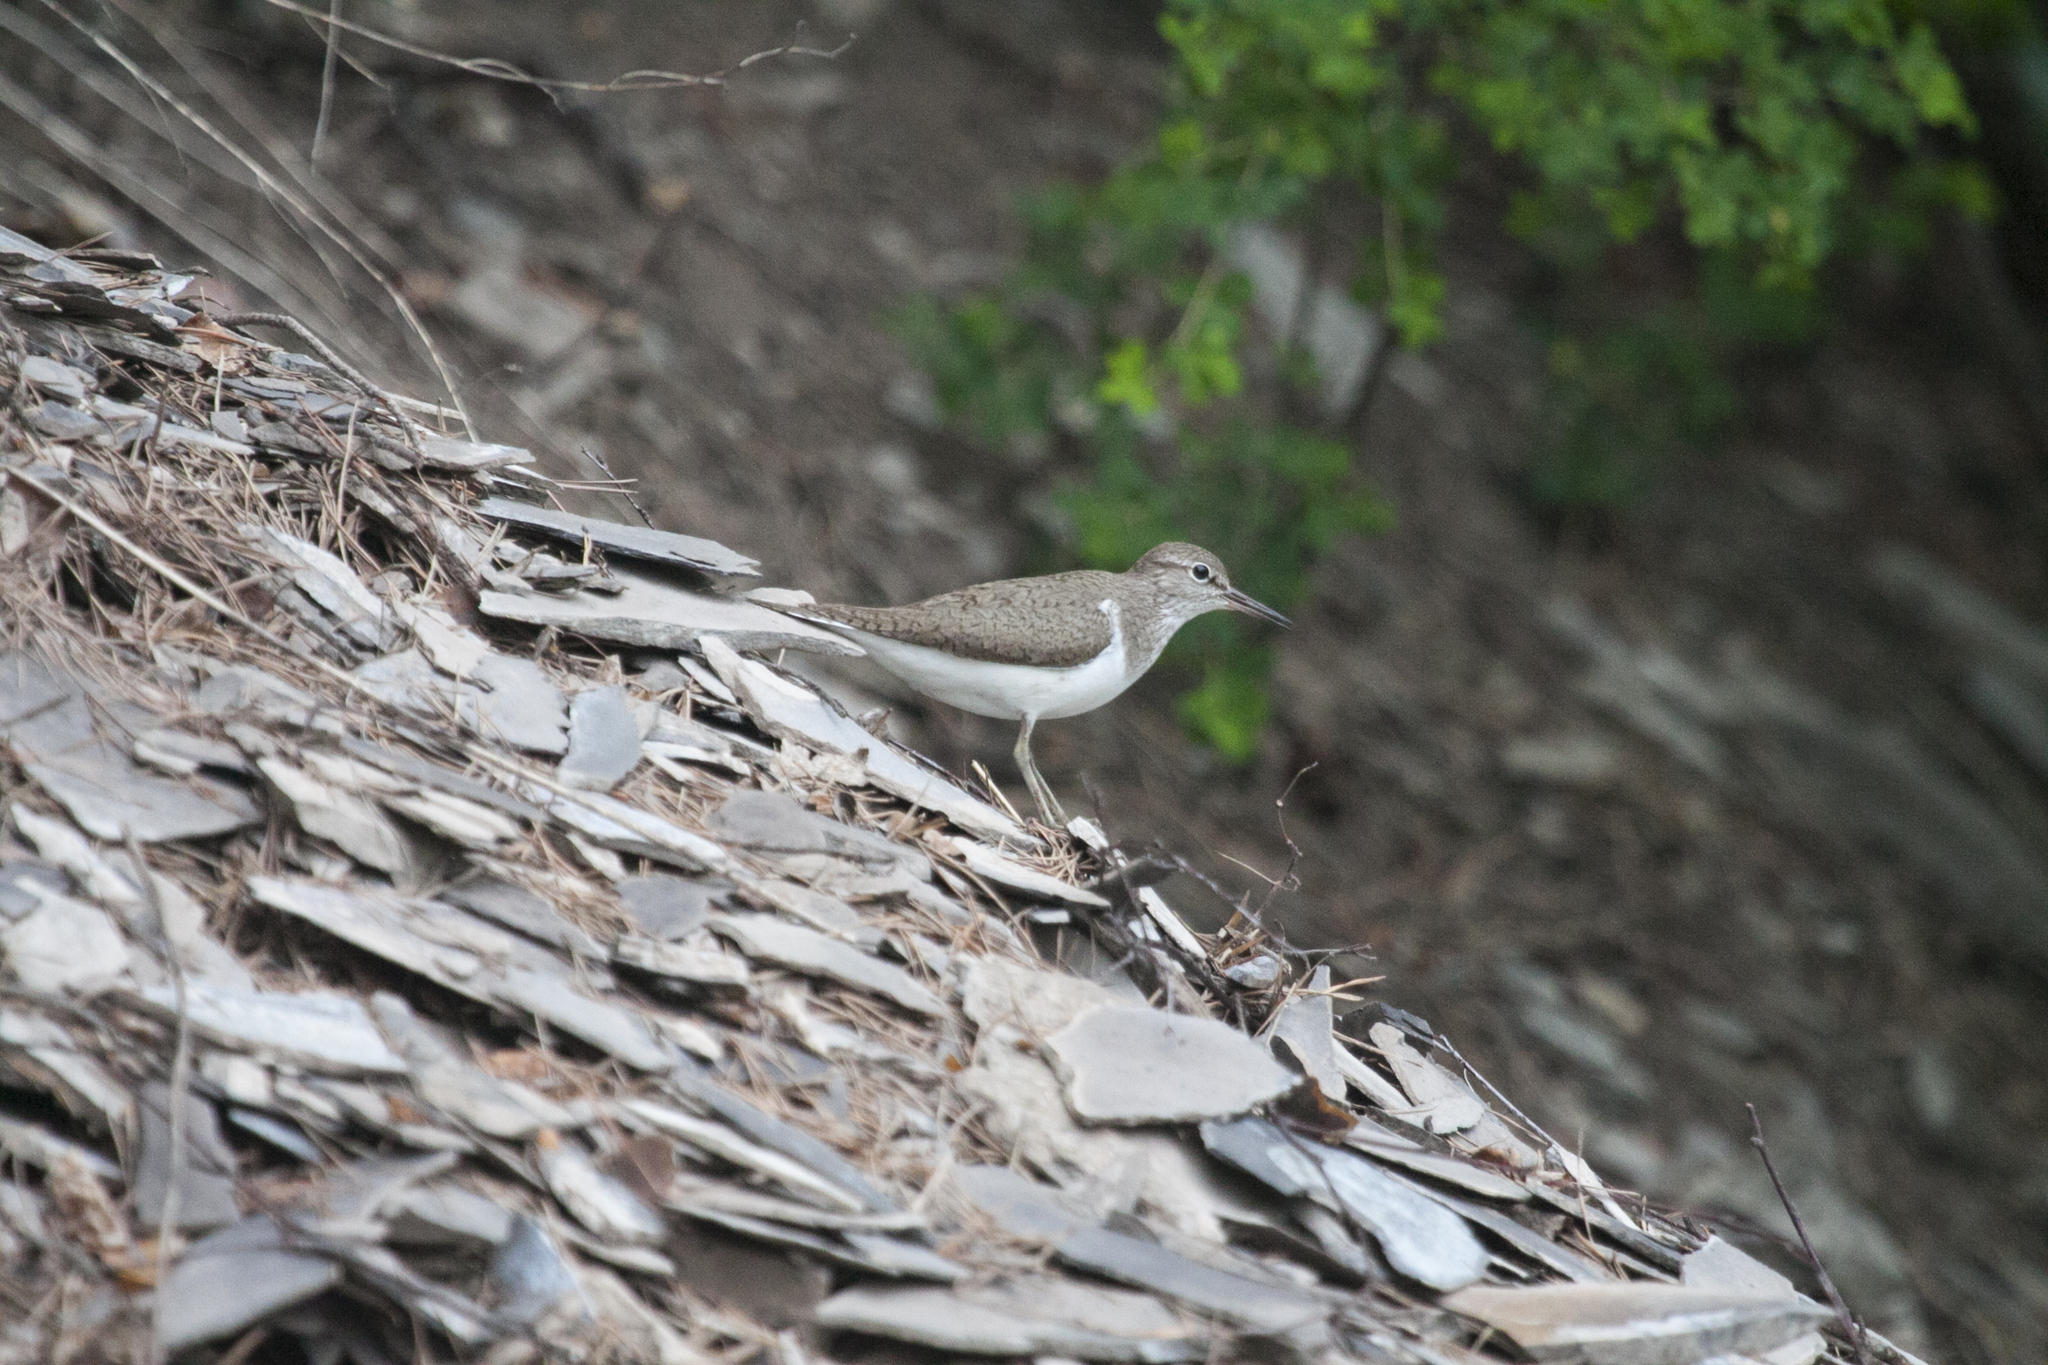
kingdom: Animalia
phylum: Chordata
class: Aves
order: Charadriiformes
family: Scolopacidae
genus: Actitis
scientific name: Actitis hypoleucos
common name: Common sandpiper
